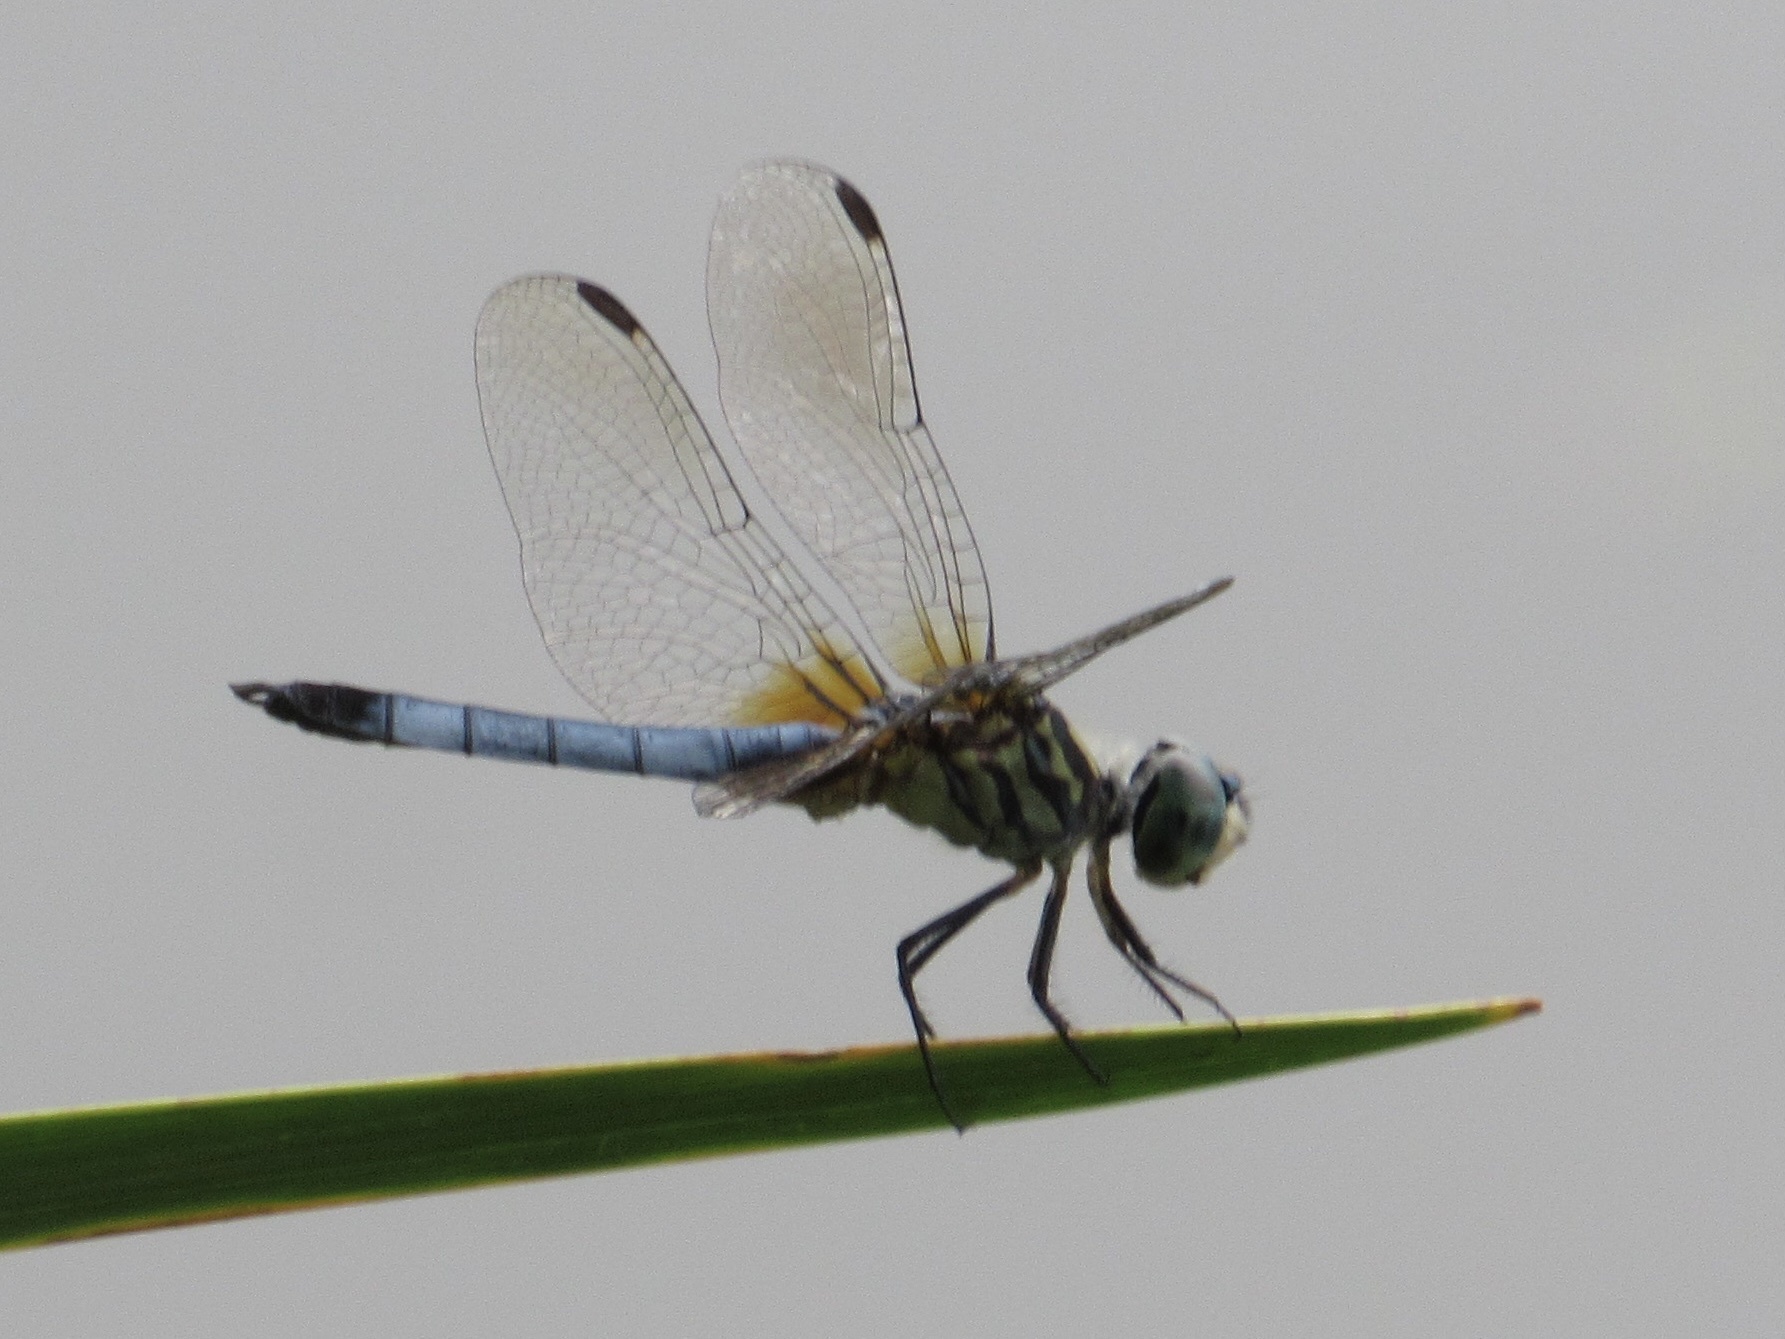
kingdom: Animalia
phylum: Arthropoda
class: Insecta
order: Odonata
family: Libellulidae
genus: Pachydiplax
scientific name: Pachydiplax longipennis
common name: Blue dasher
